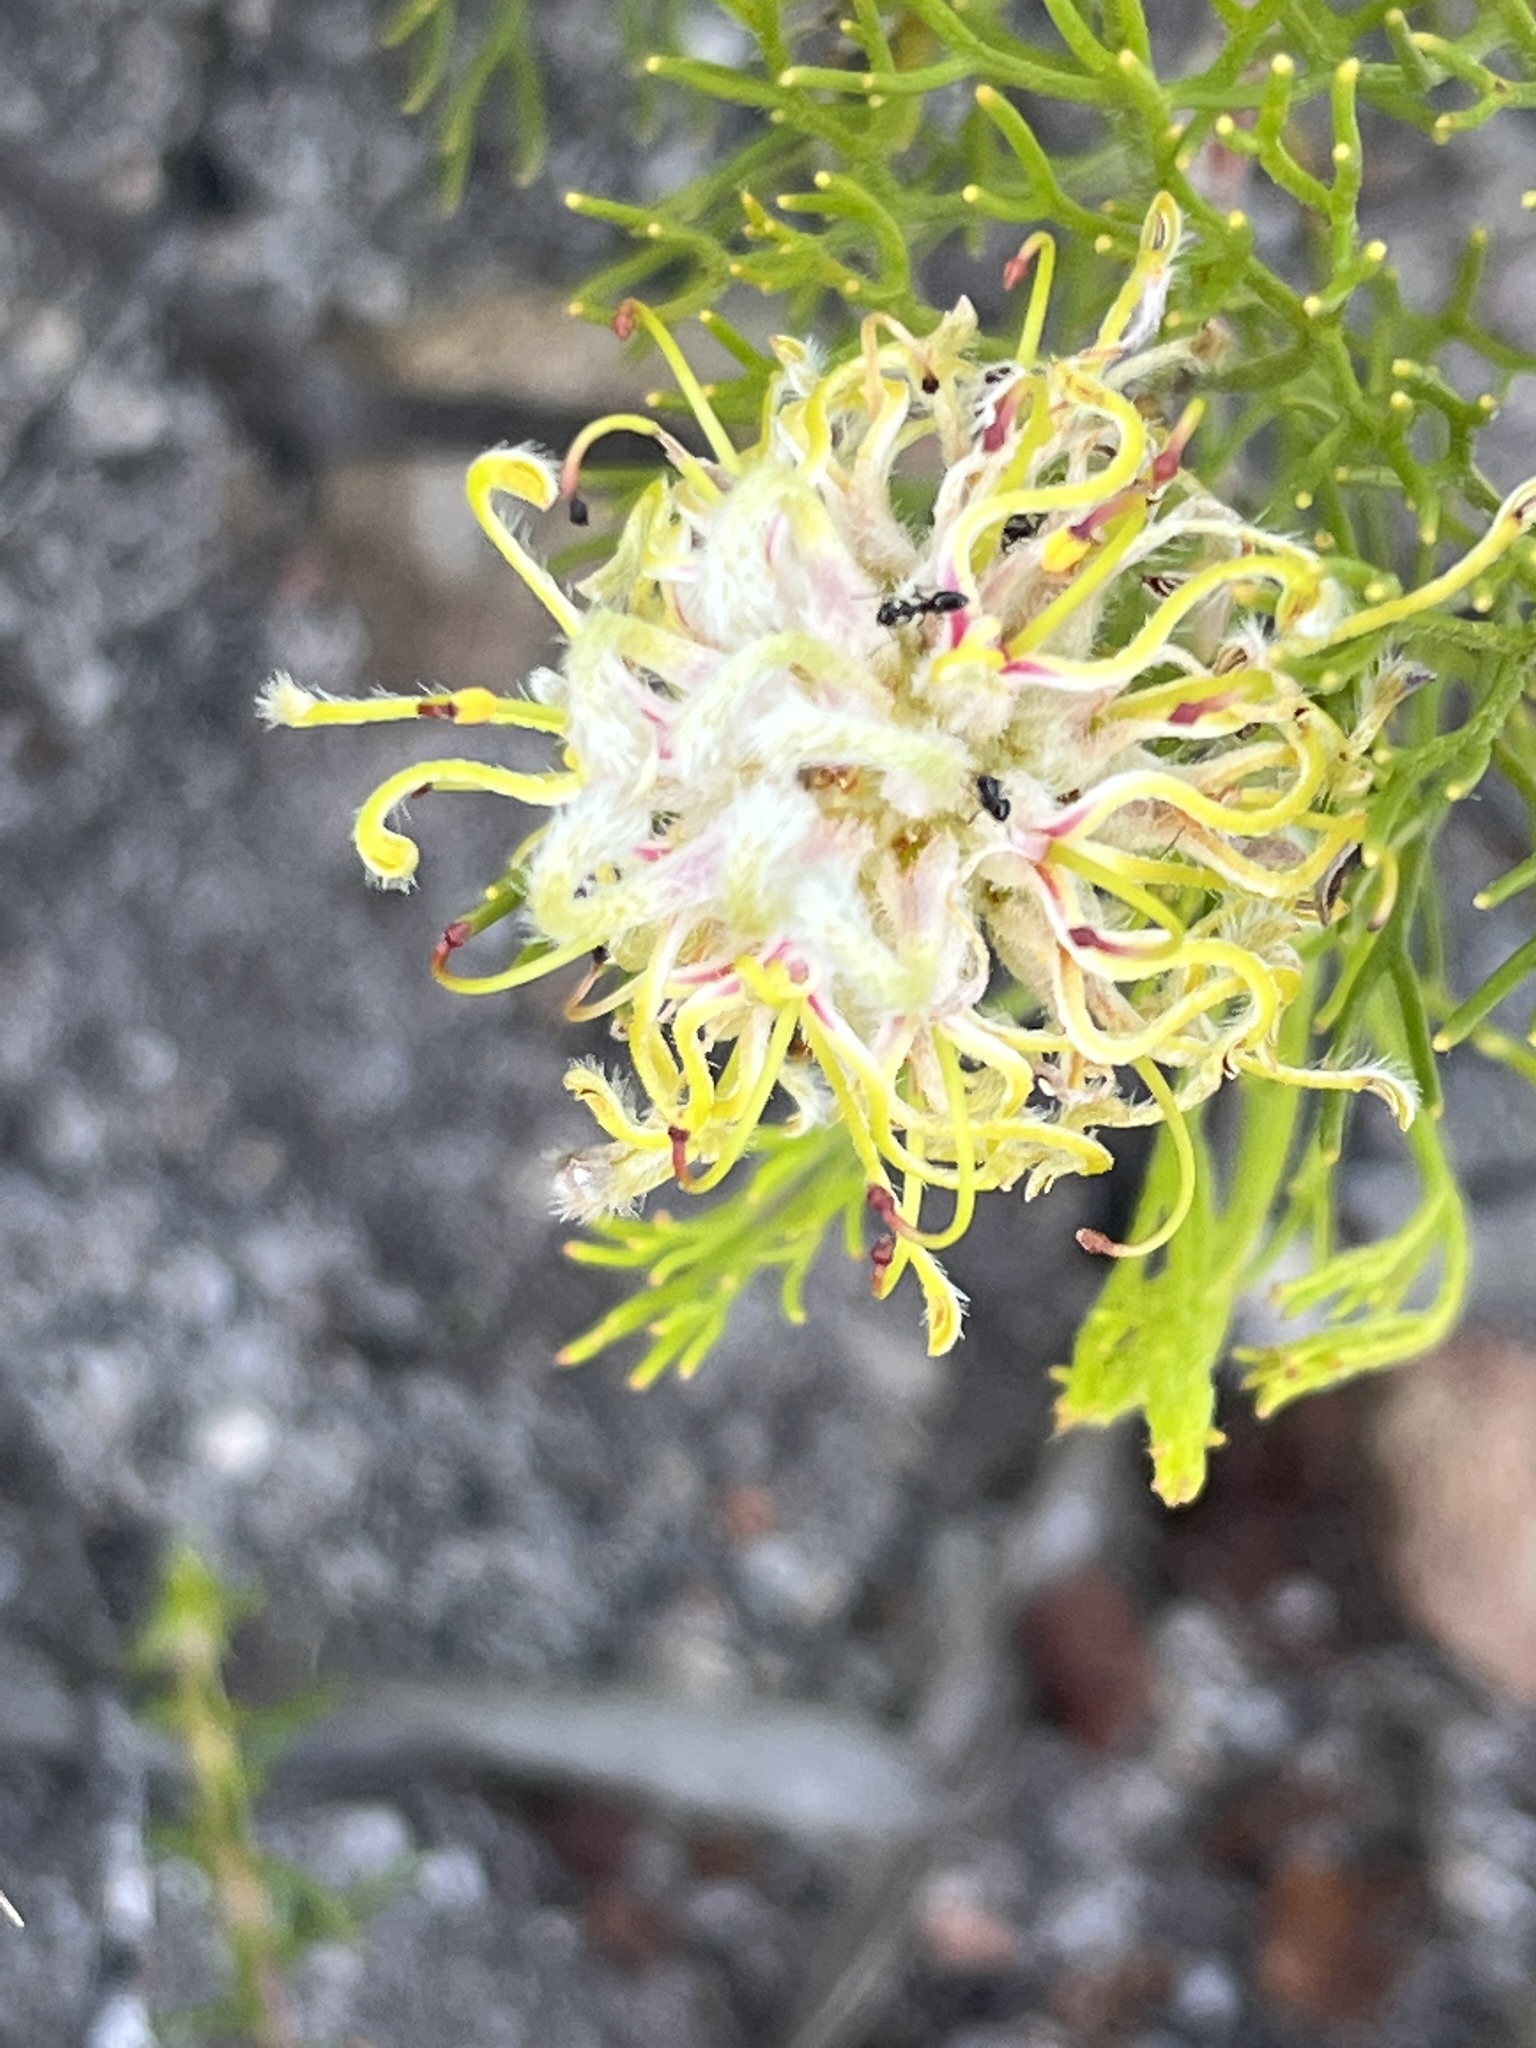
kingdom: Plantae
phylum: Tracheophyta
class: Magnoliopsida
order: Proteales
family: Proteaceae
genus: Serruria
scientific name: Serruria
